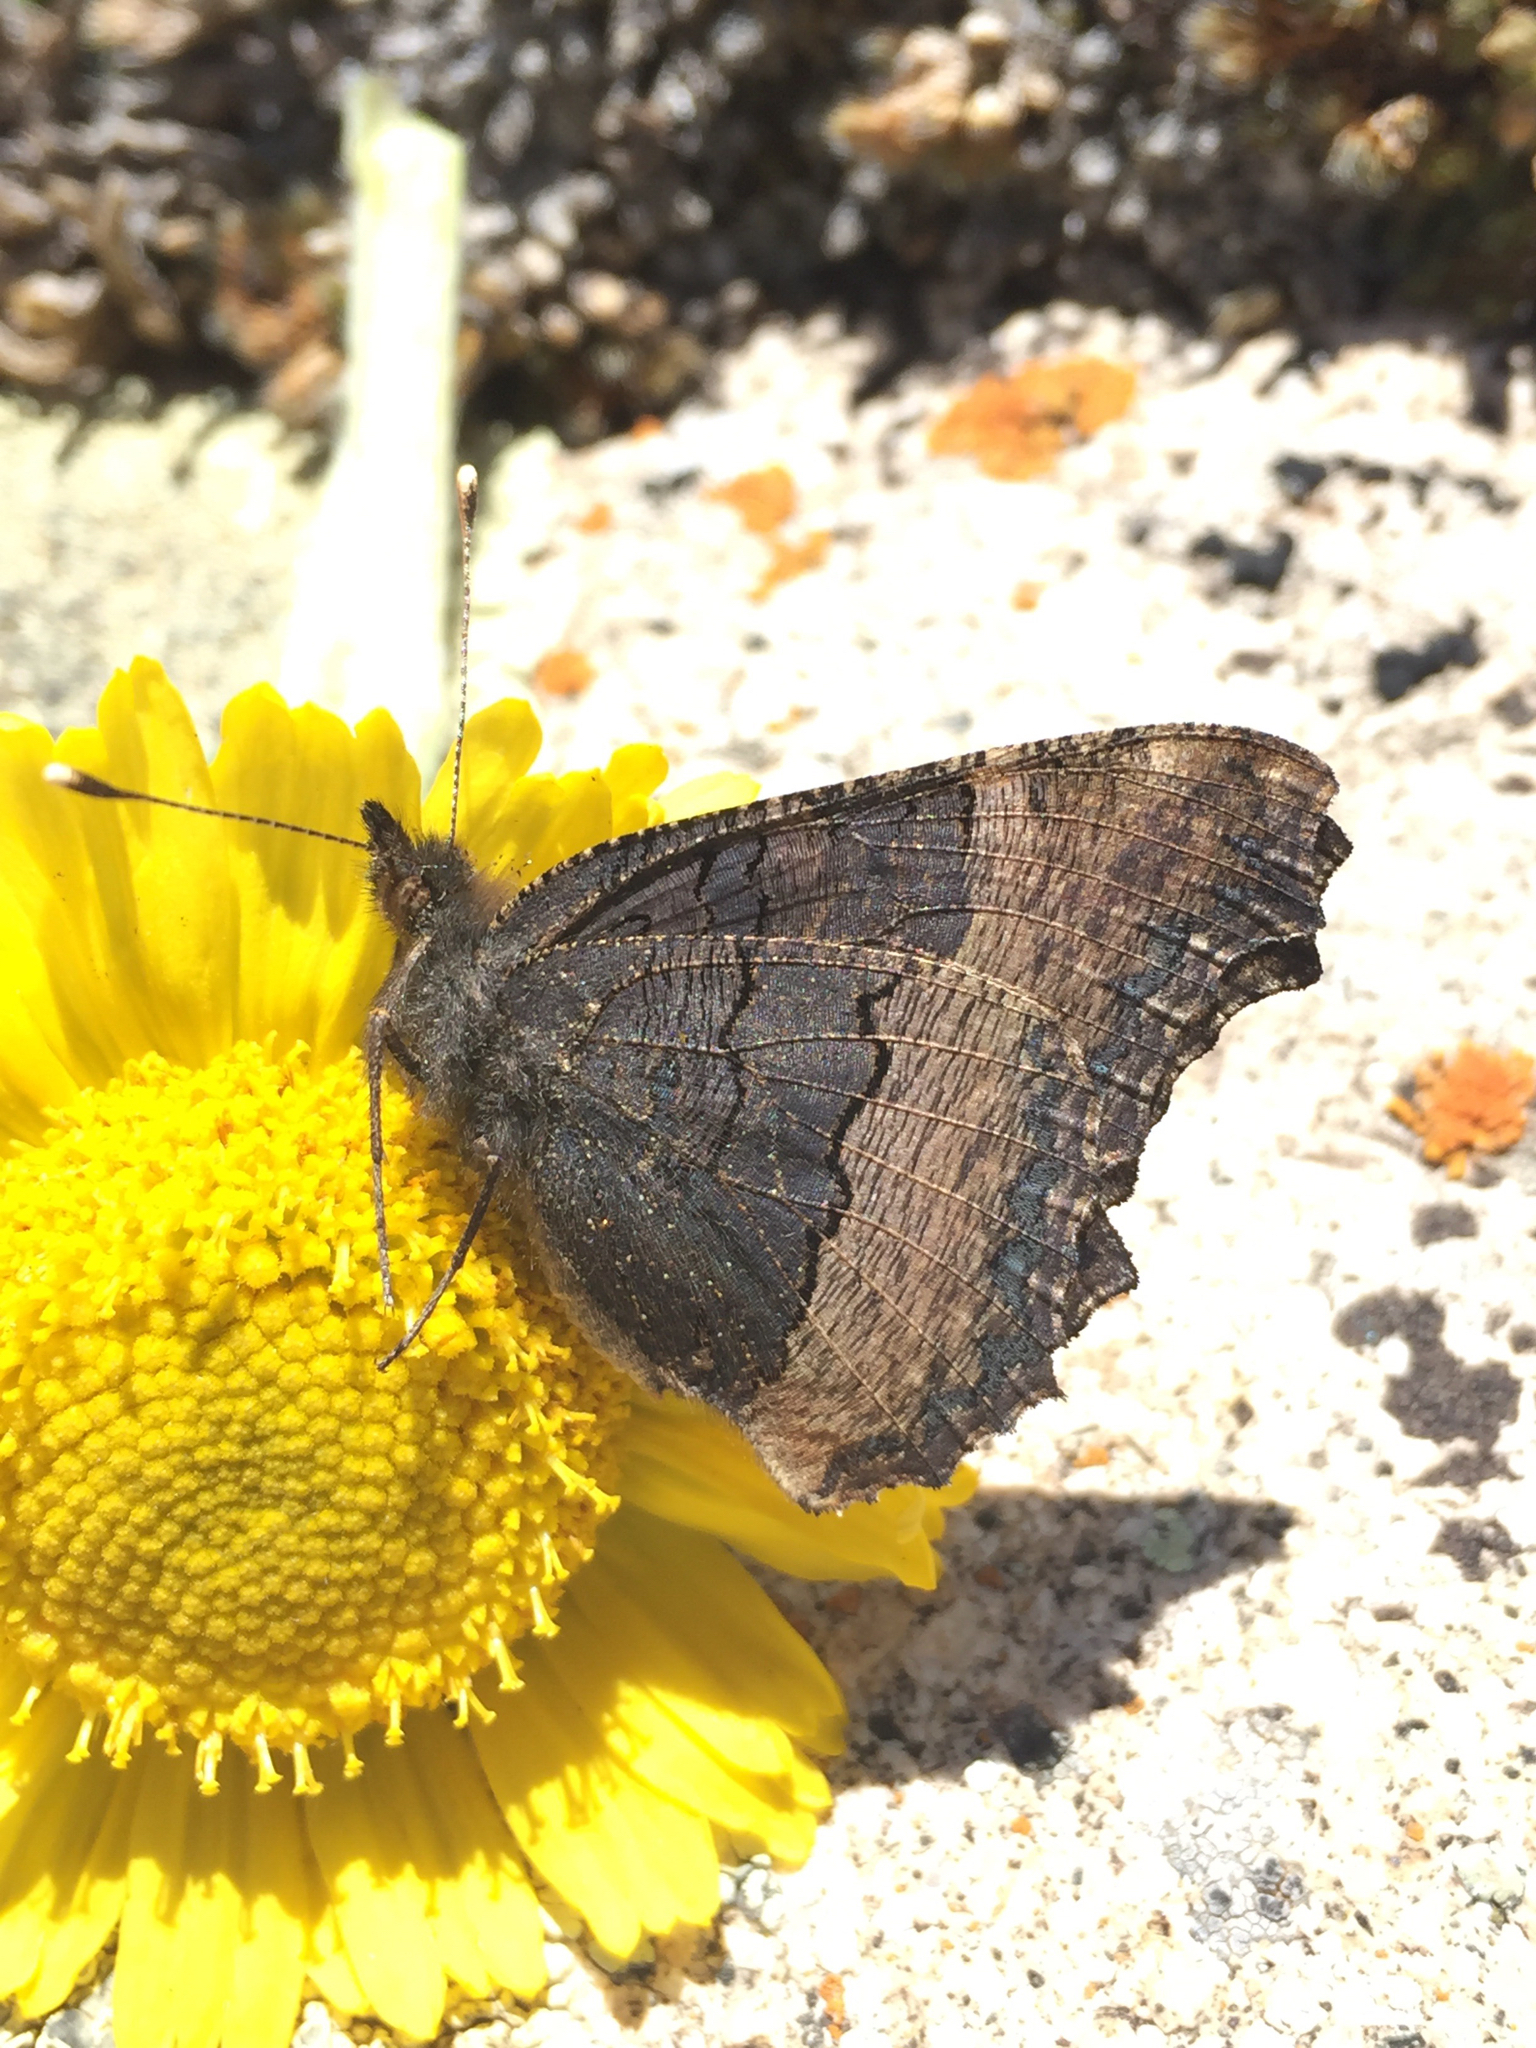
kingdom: Animalia
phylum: Arthropoda
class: Insecta
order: Lepidoptera
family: Nymphalidae
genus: Aglais
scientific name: Aglais milberti
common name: Milbert's tortoiseshell
